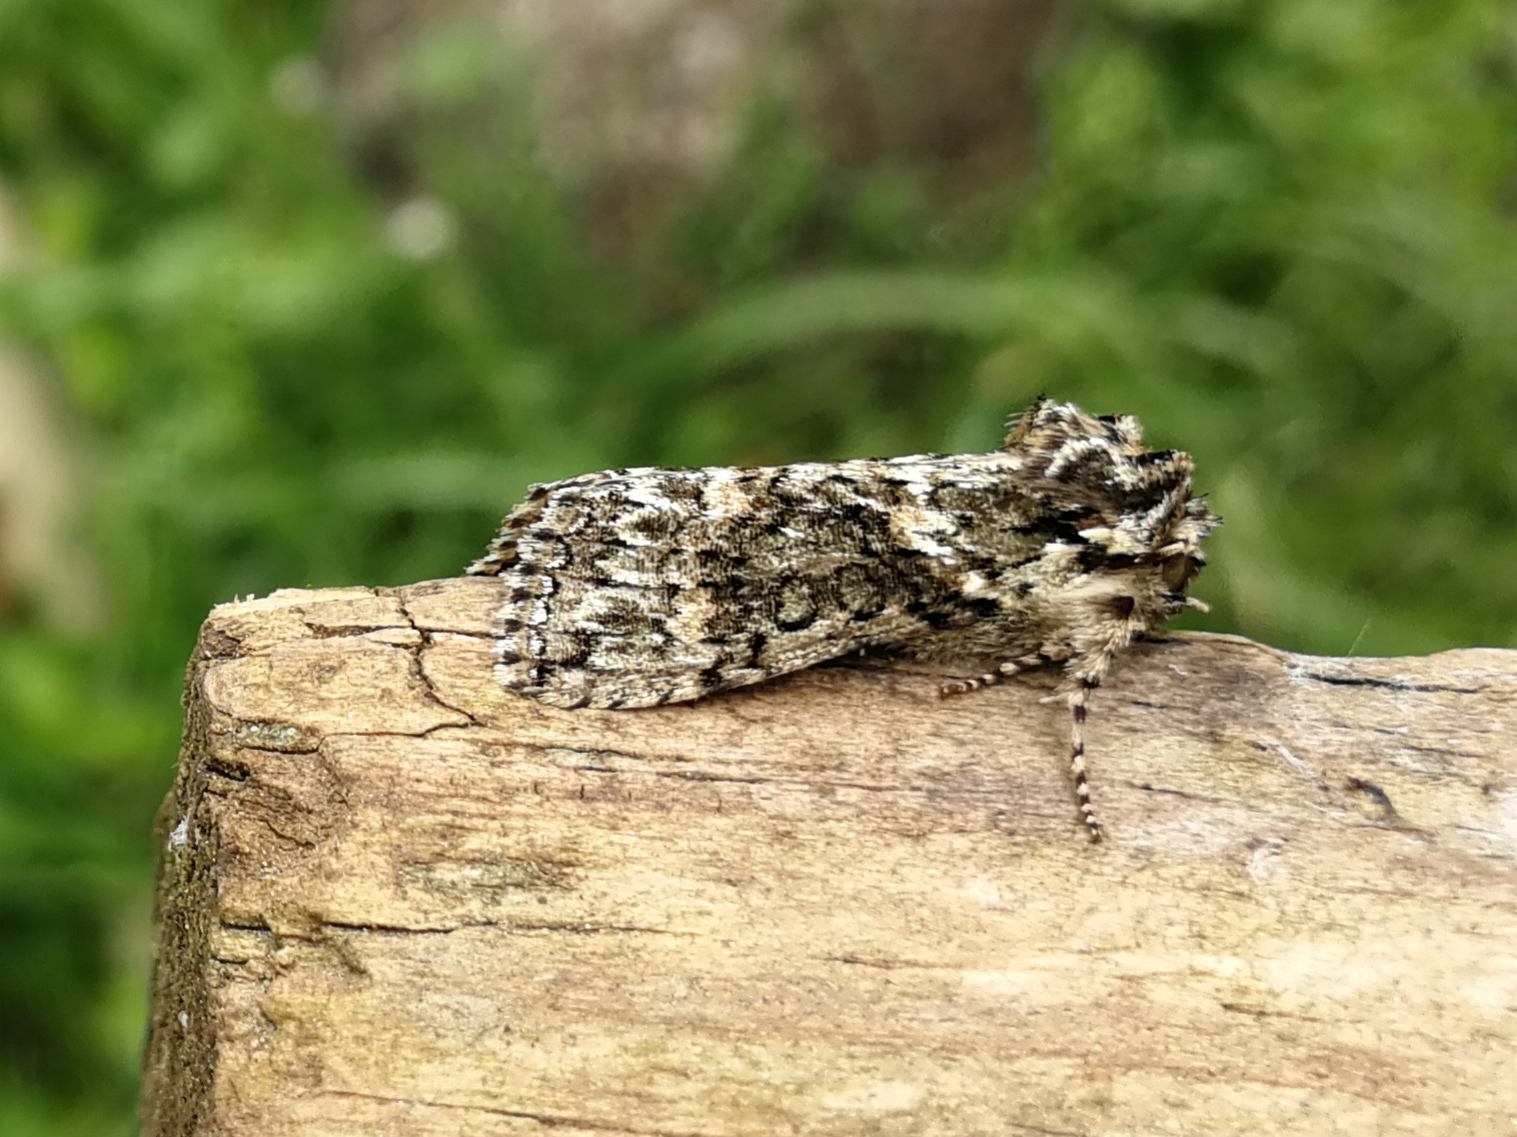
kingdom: Animalia
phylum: Arthropoda
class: Insecta
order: Lepidoptera
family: Drepanidae
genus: Polyploca
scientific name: Polyploca ridens
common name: Frosted green
